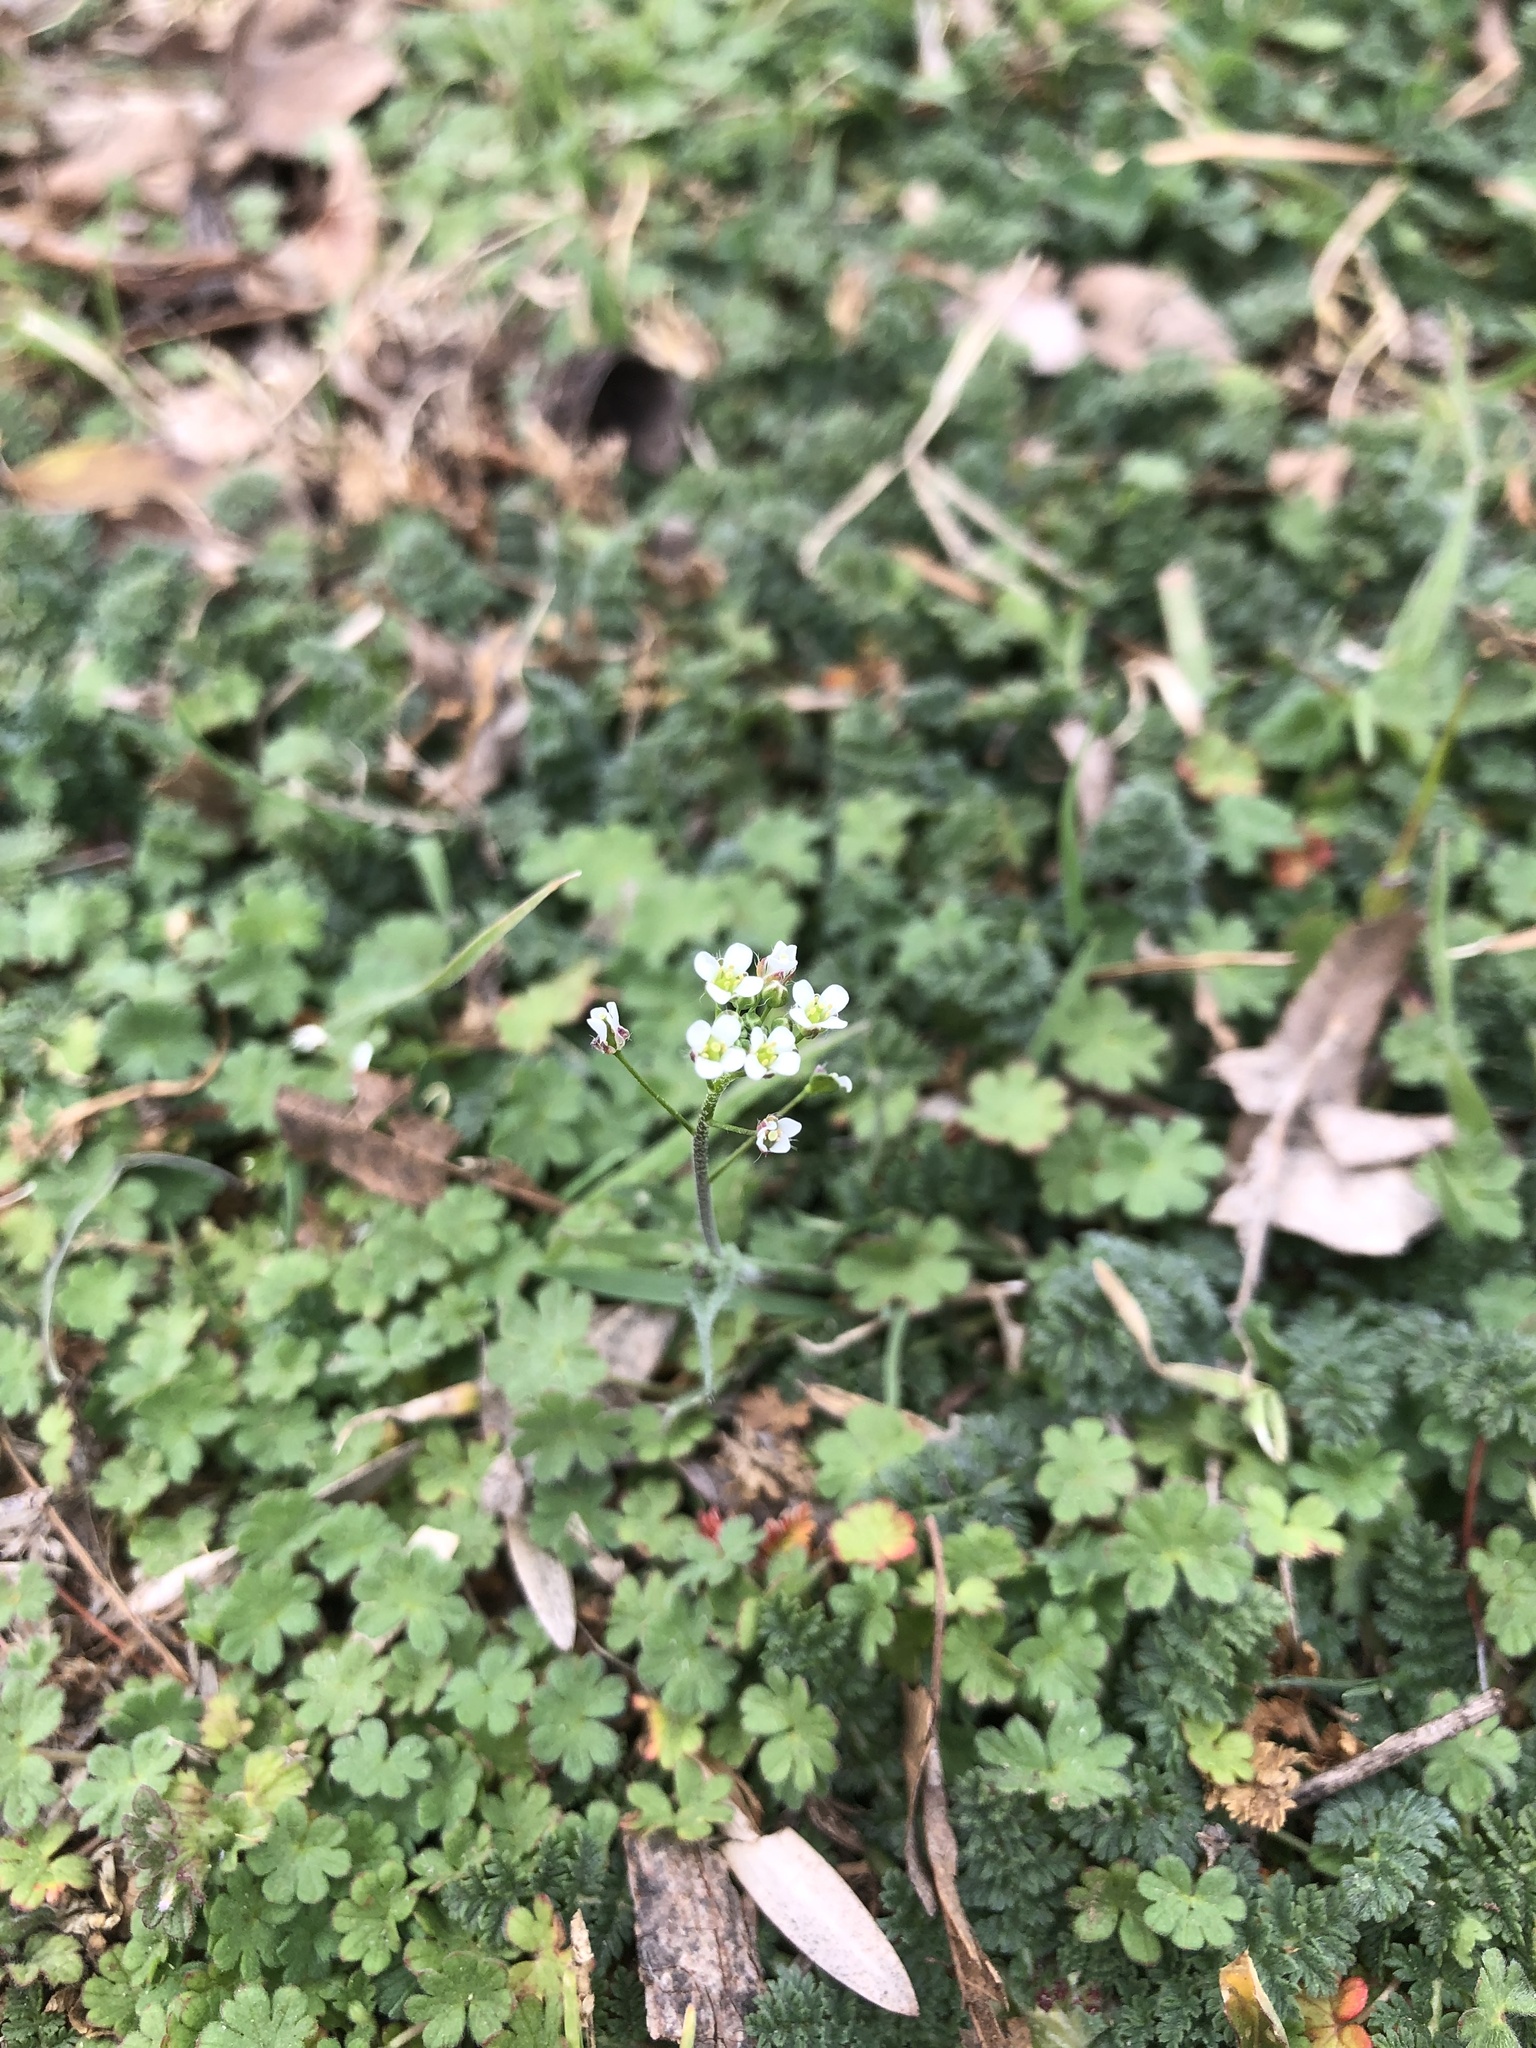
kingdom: Plantae
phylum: Tracheophyta
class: Magnoliopsida
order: Brassicales
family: Brassicaceae
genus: Capsella
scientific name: Capsella bursa-pastoris
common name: Shepherd's purse
